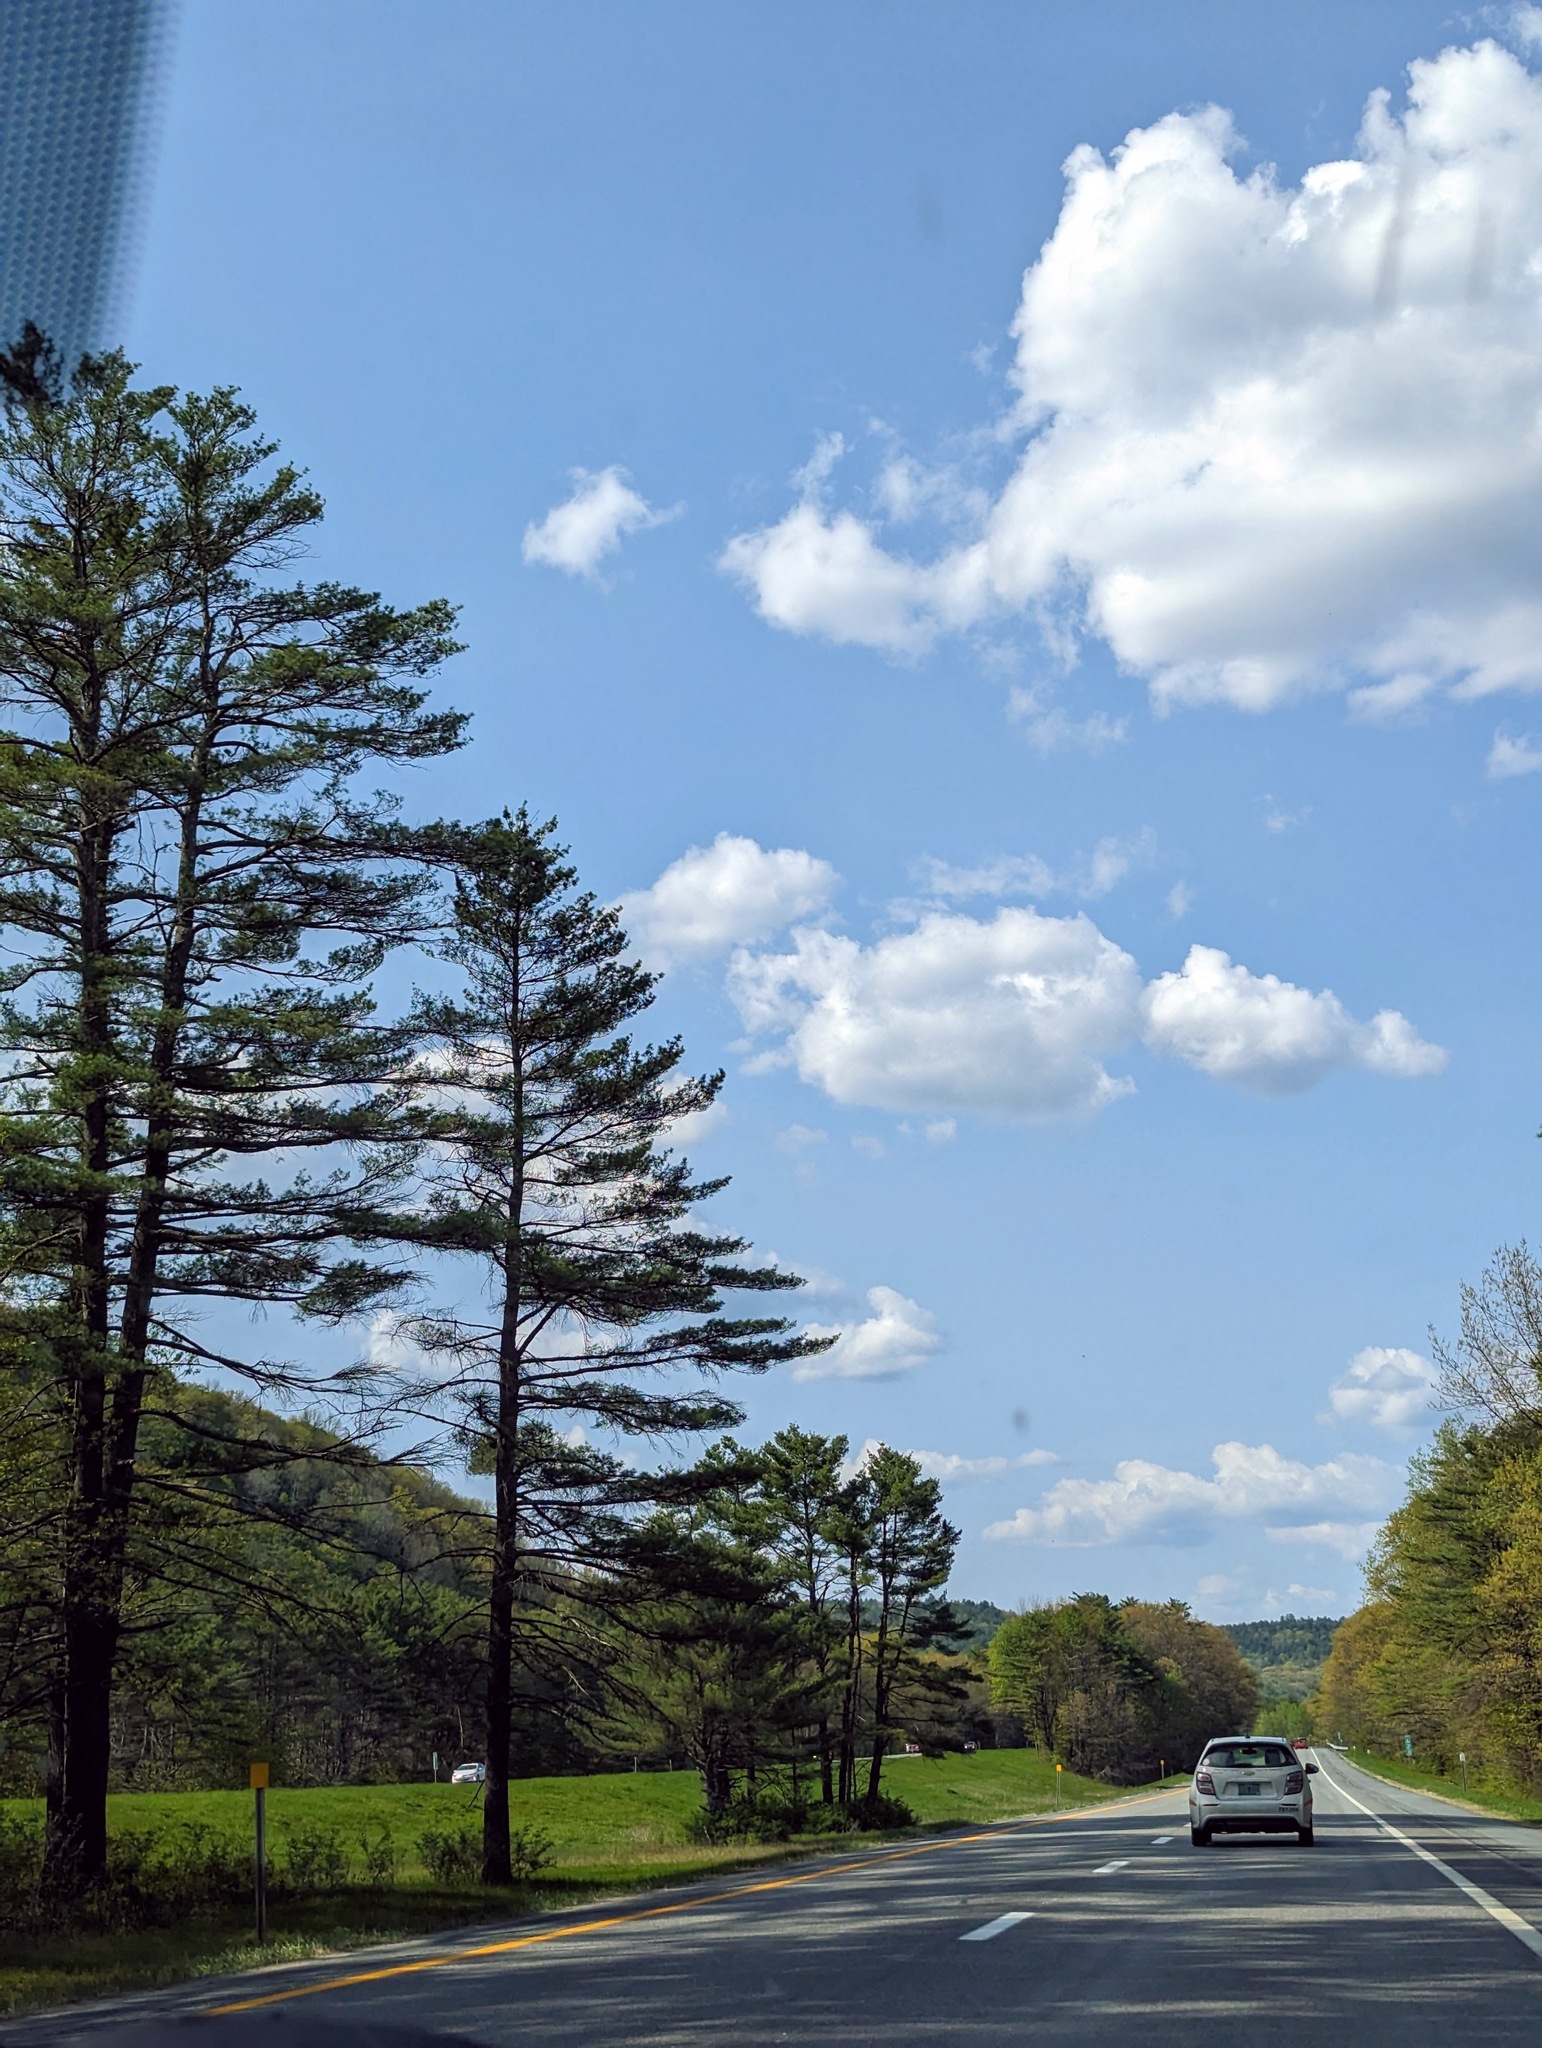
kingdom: Plantae
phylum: Tracheophyta
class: Pinopsida
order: Pinales
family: Pinaceae
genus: Pinus
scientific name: Pinus strobus
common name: Weymouth pine
